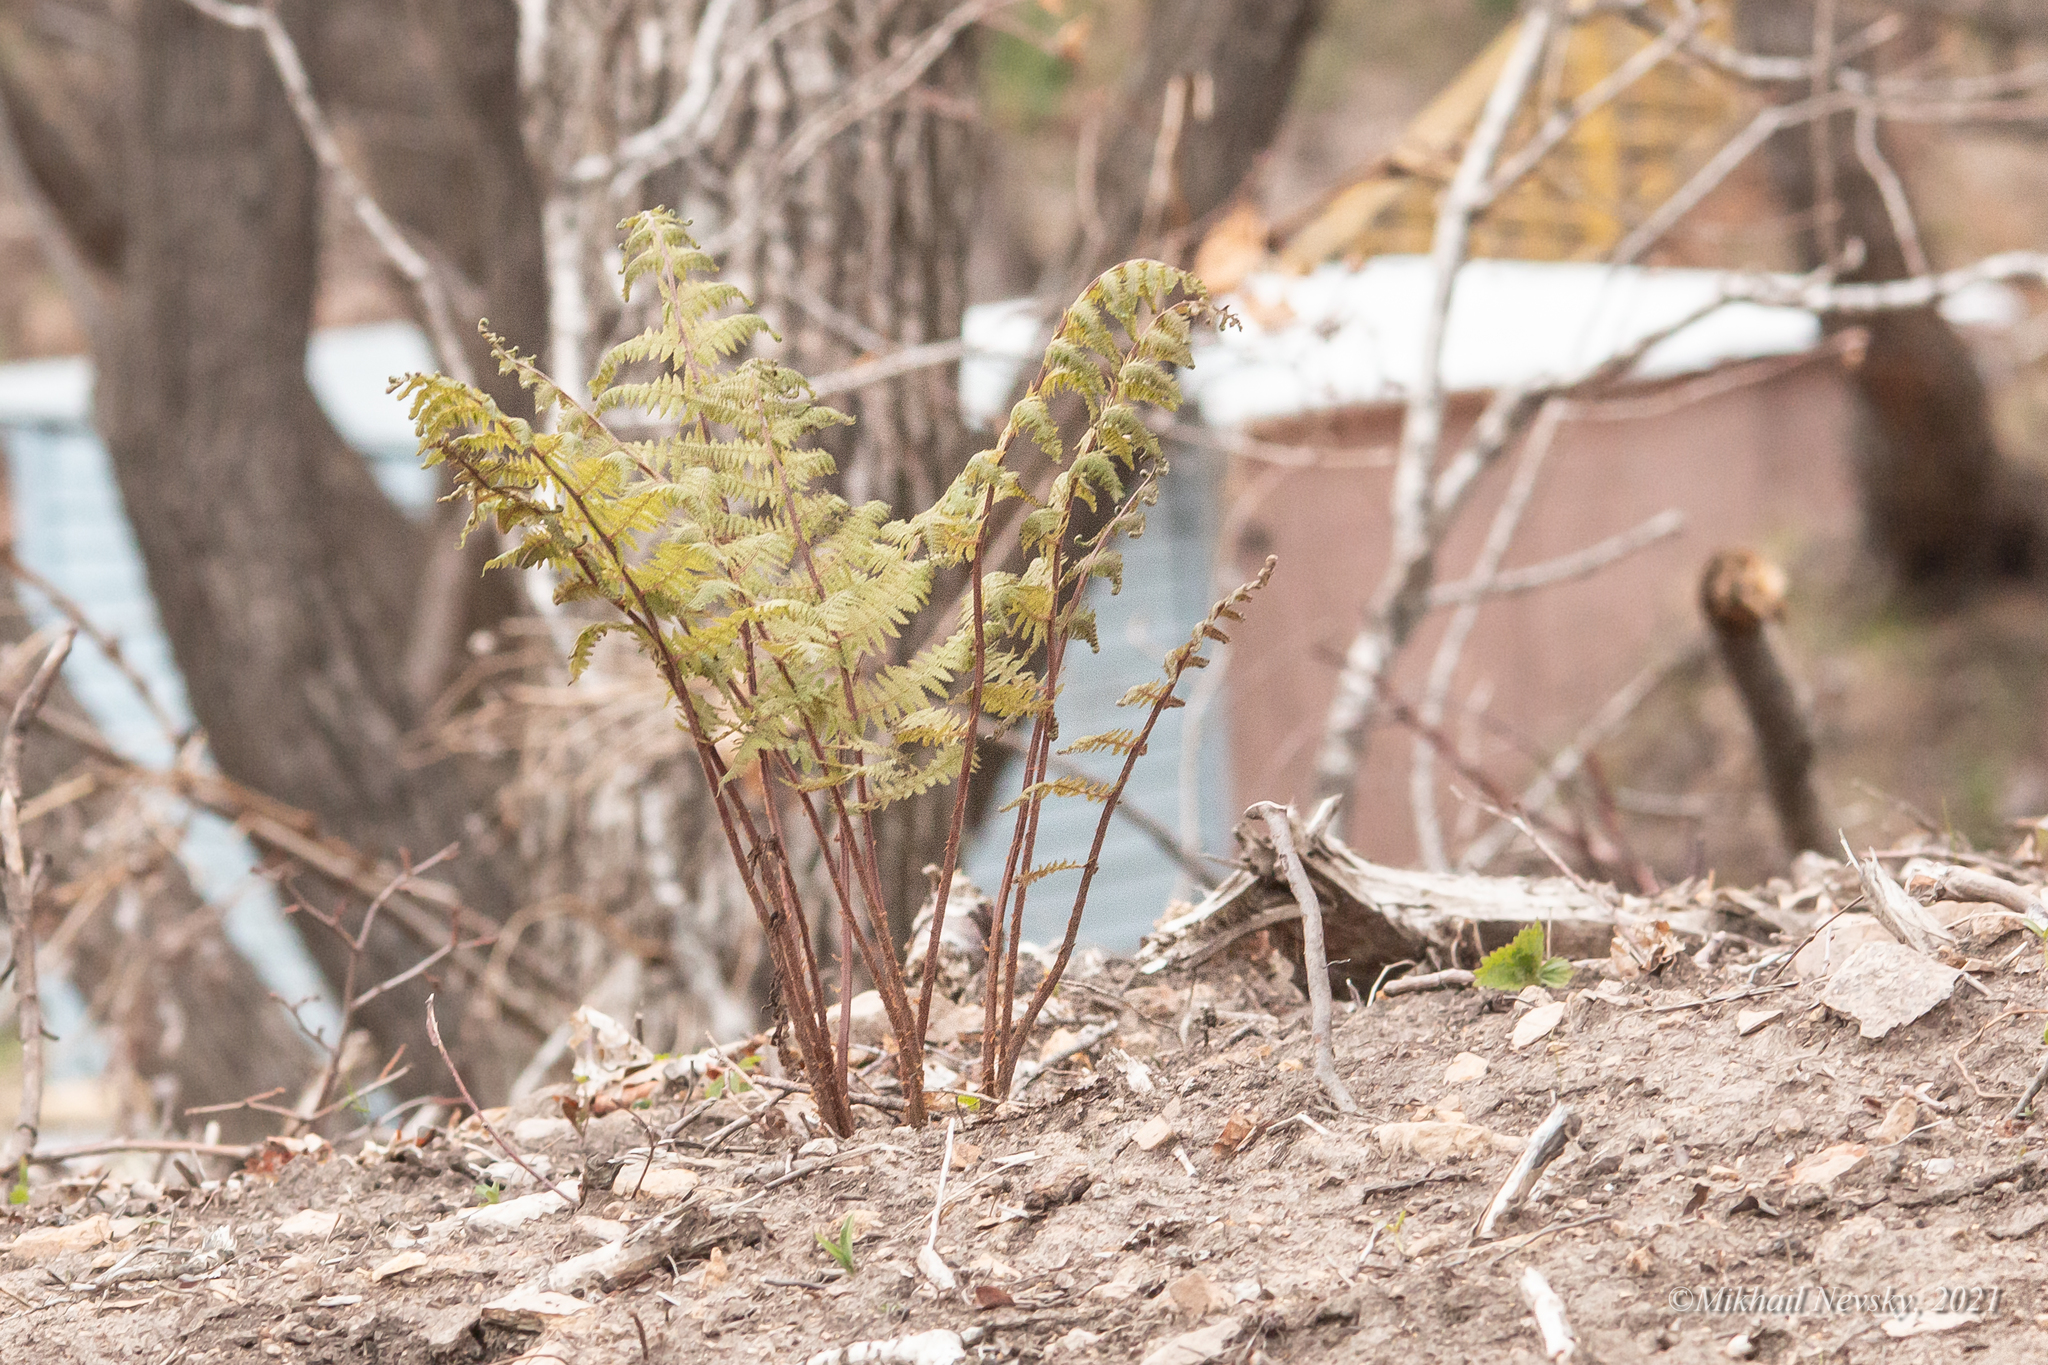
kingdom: Plantae
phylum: Tracheophyta
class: Polypodiopsida
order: Polypodiales
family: Athyriaceae
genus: Athyrium
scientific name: Athyrium rubripes
